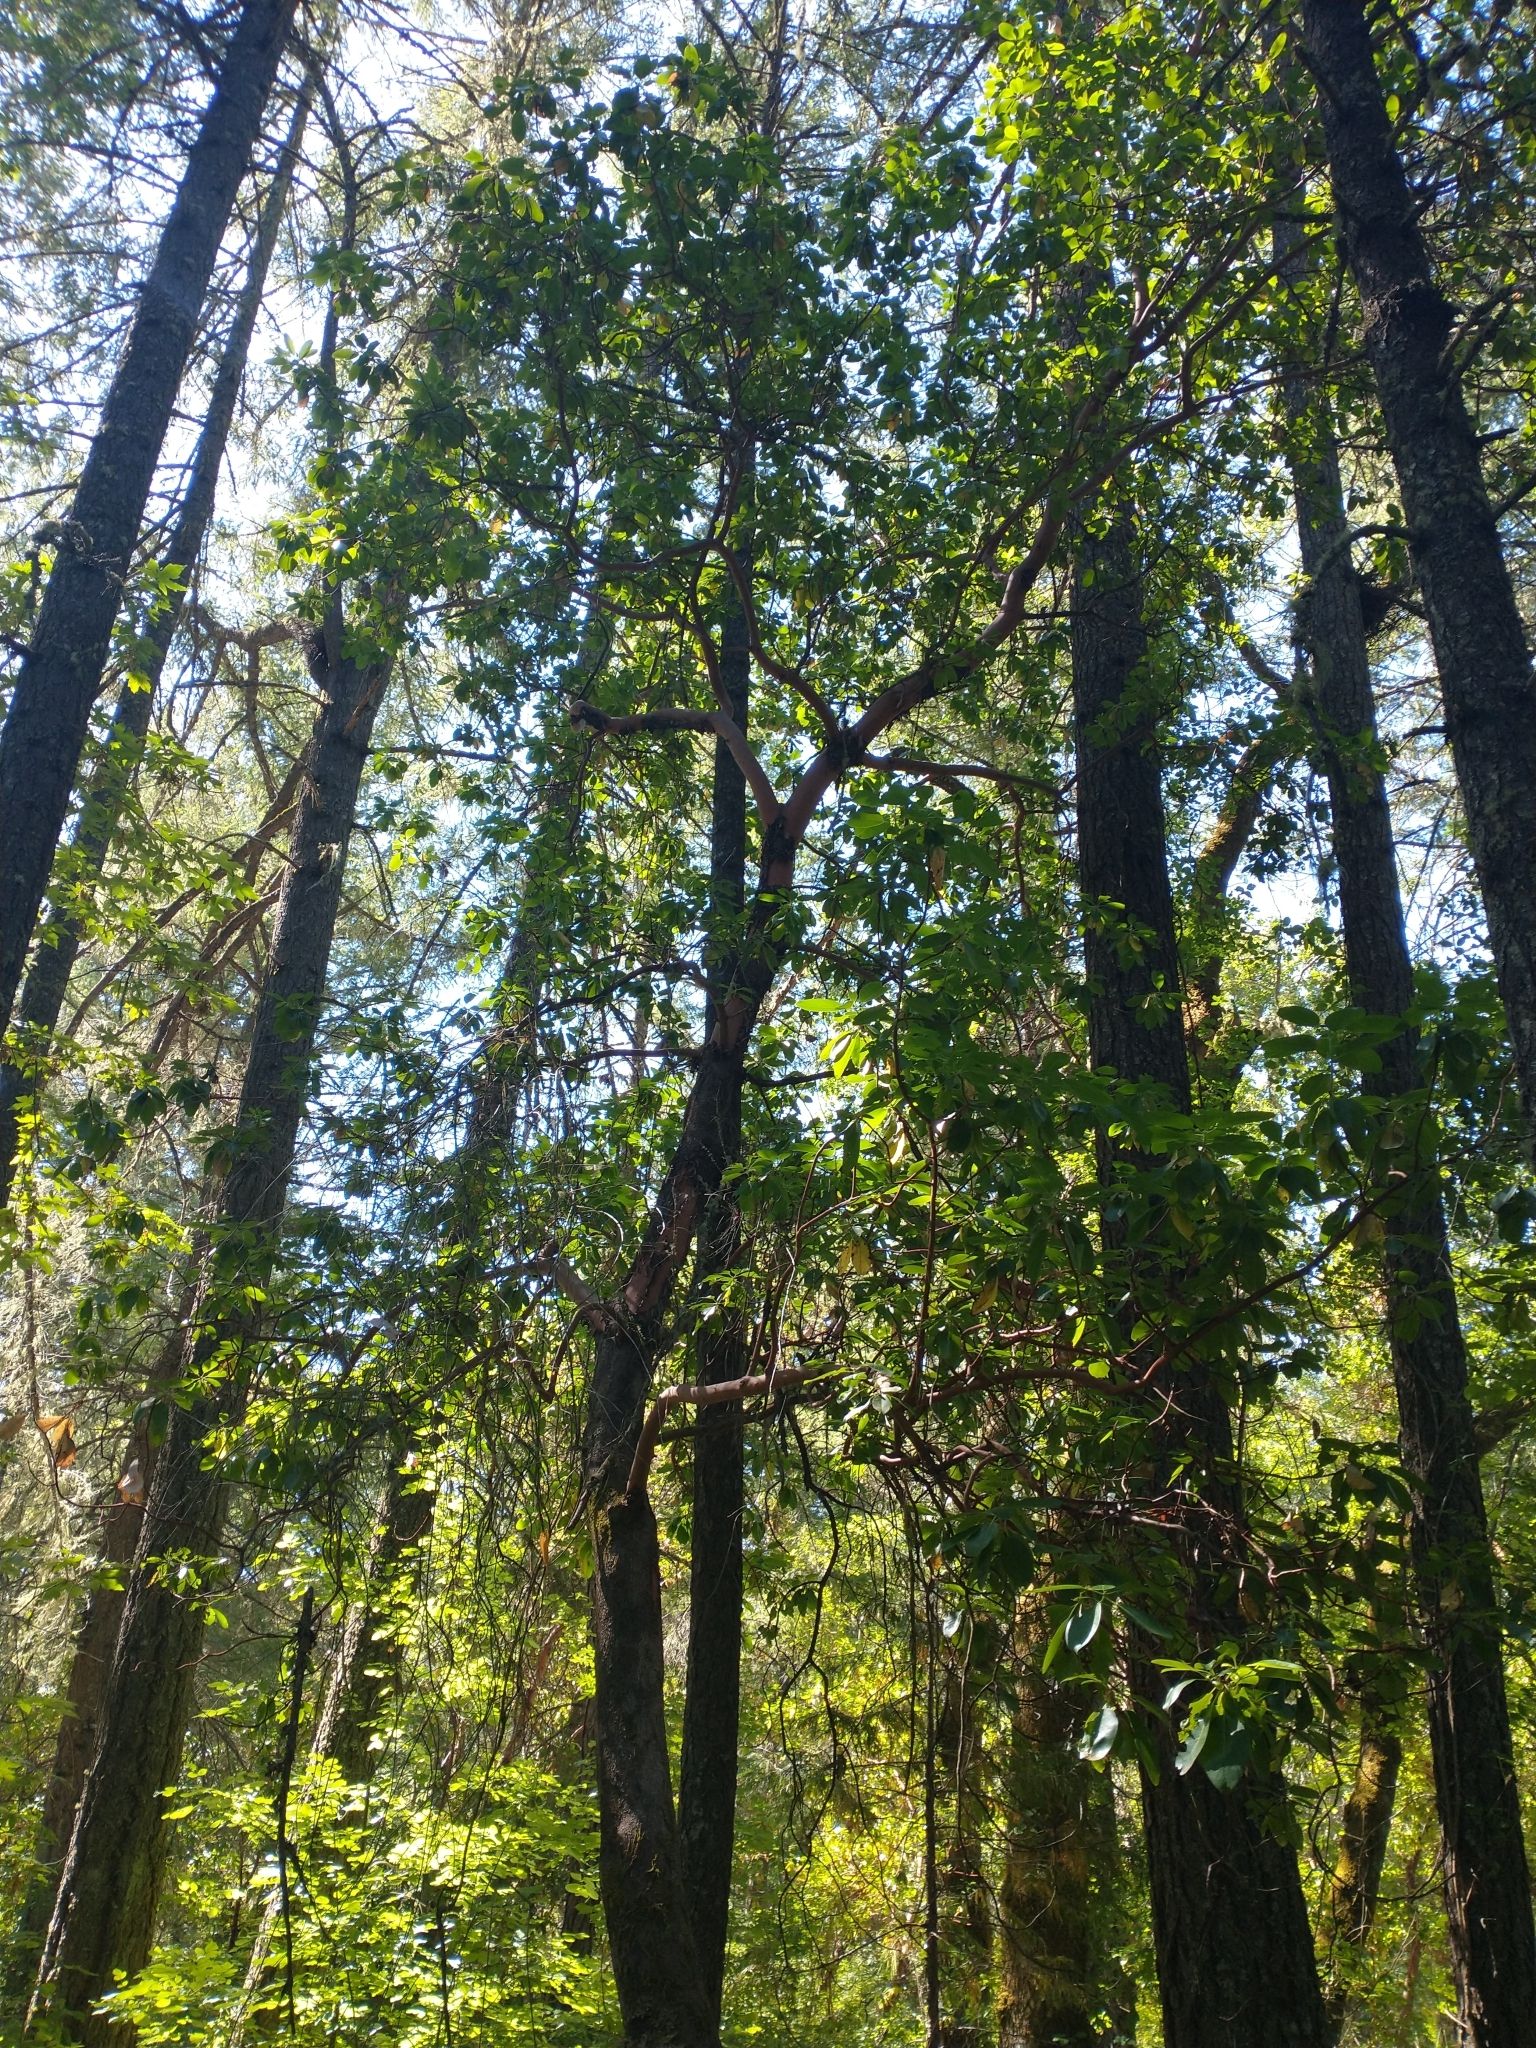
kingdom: Plantae
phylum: Tracheophyta
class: Magnoliopsida
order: Ericales
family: Ericaceae
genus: Arbutus
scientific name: Arbutus menziesii
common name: Pacific madrone
